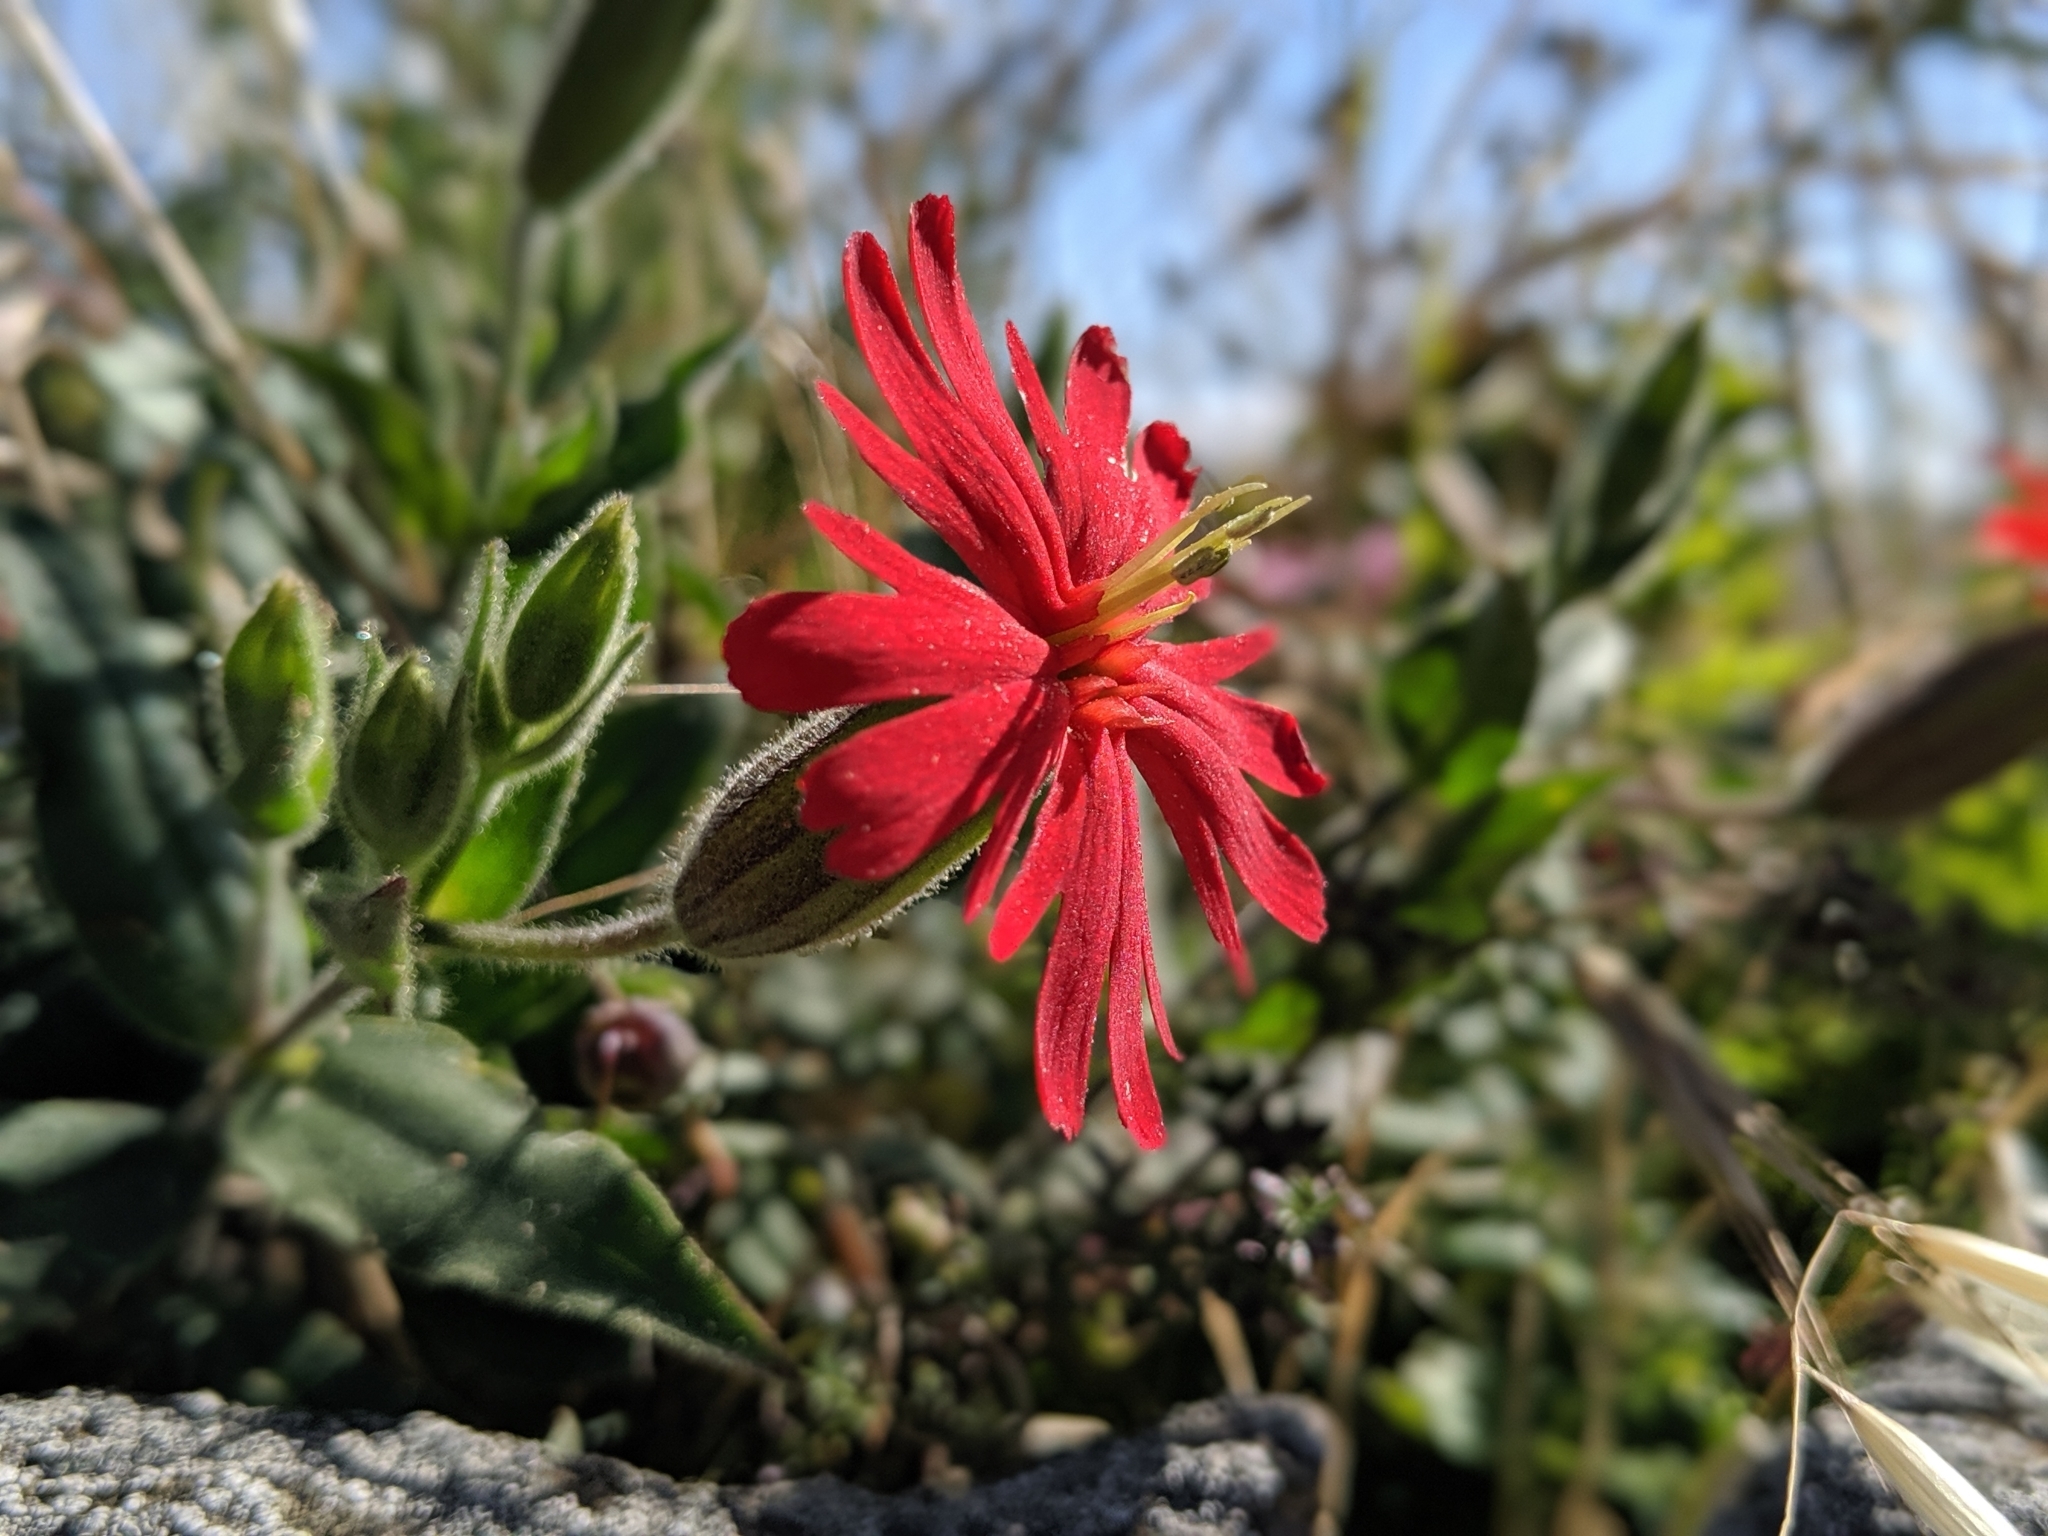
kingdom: Plantae
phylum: Tracheophyta
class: Magnoliopsida
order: Caryophyllales
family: Caryophyllaceae
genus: Silene
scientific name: Silene laciniata
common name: Indian-pink
